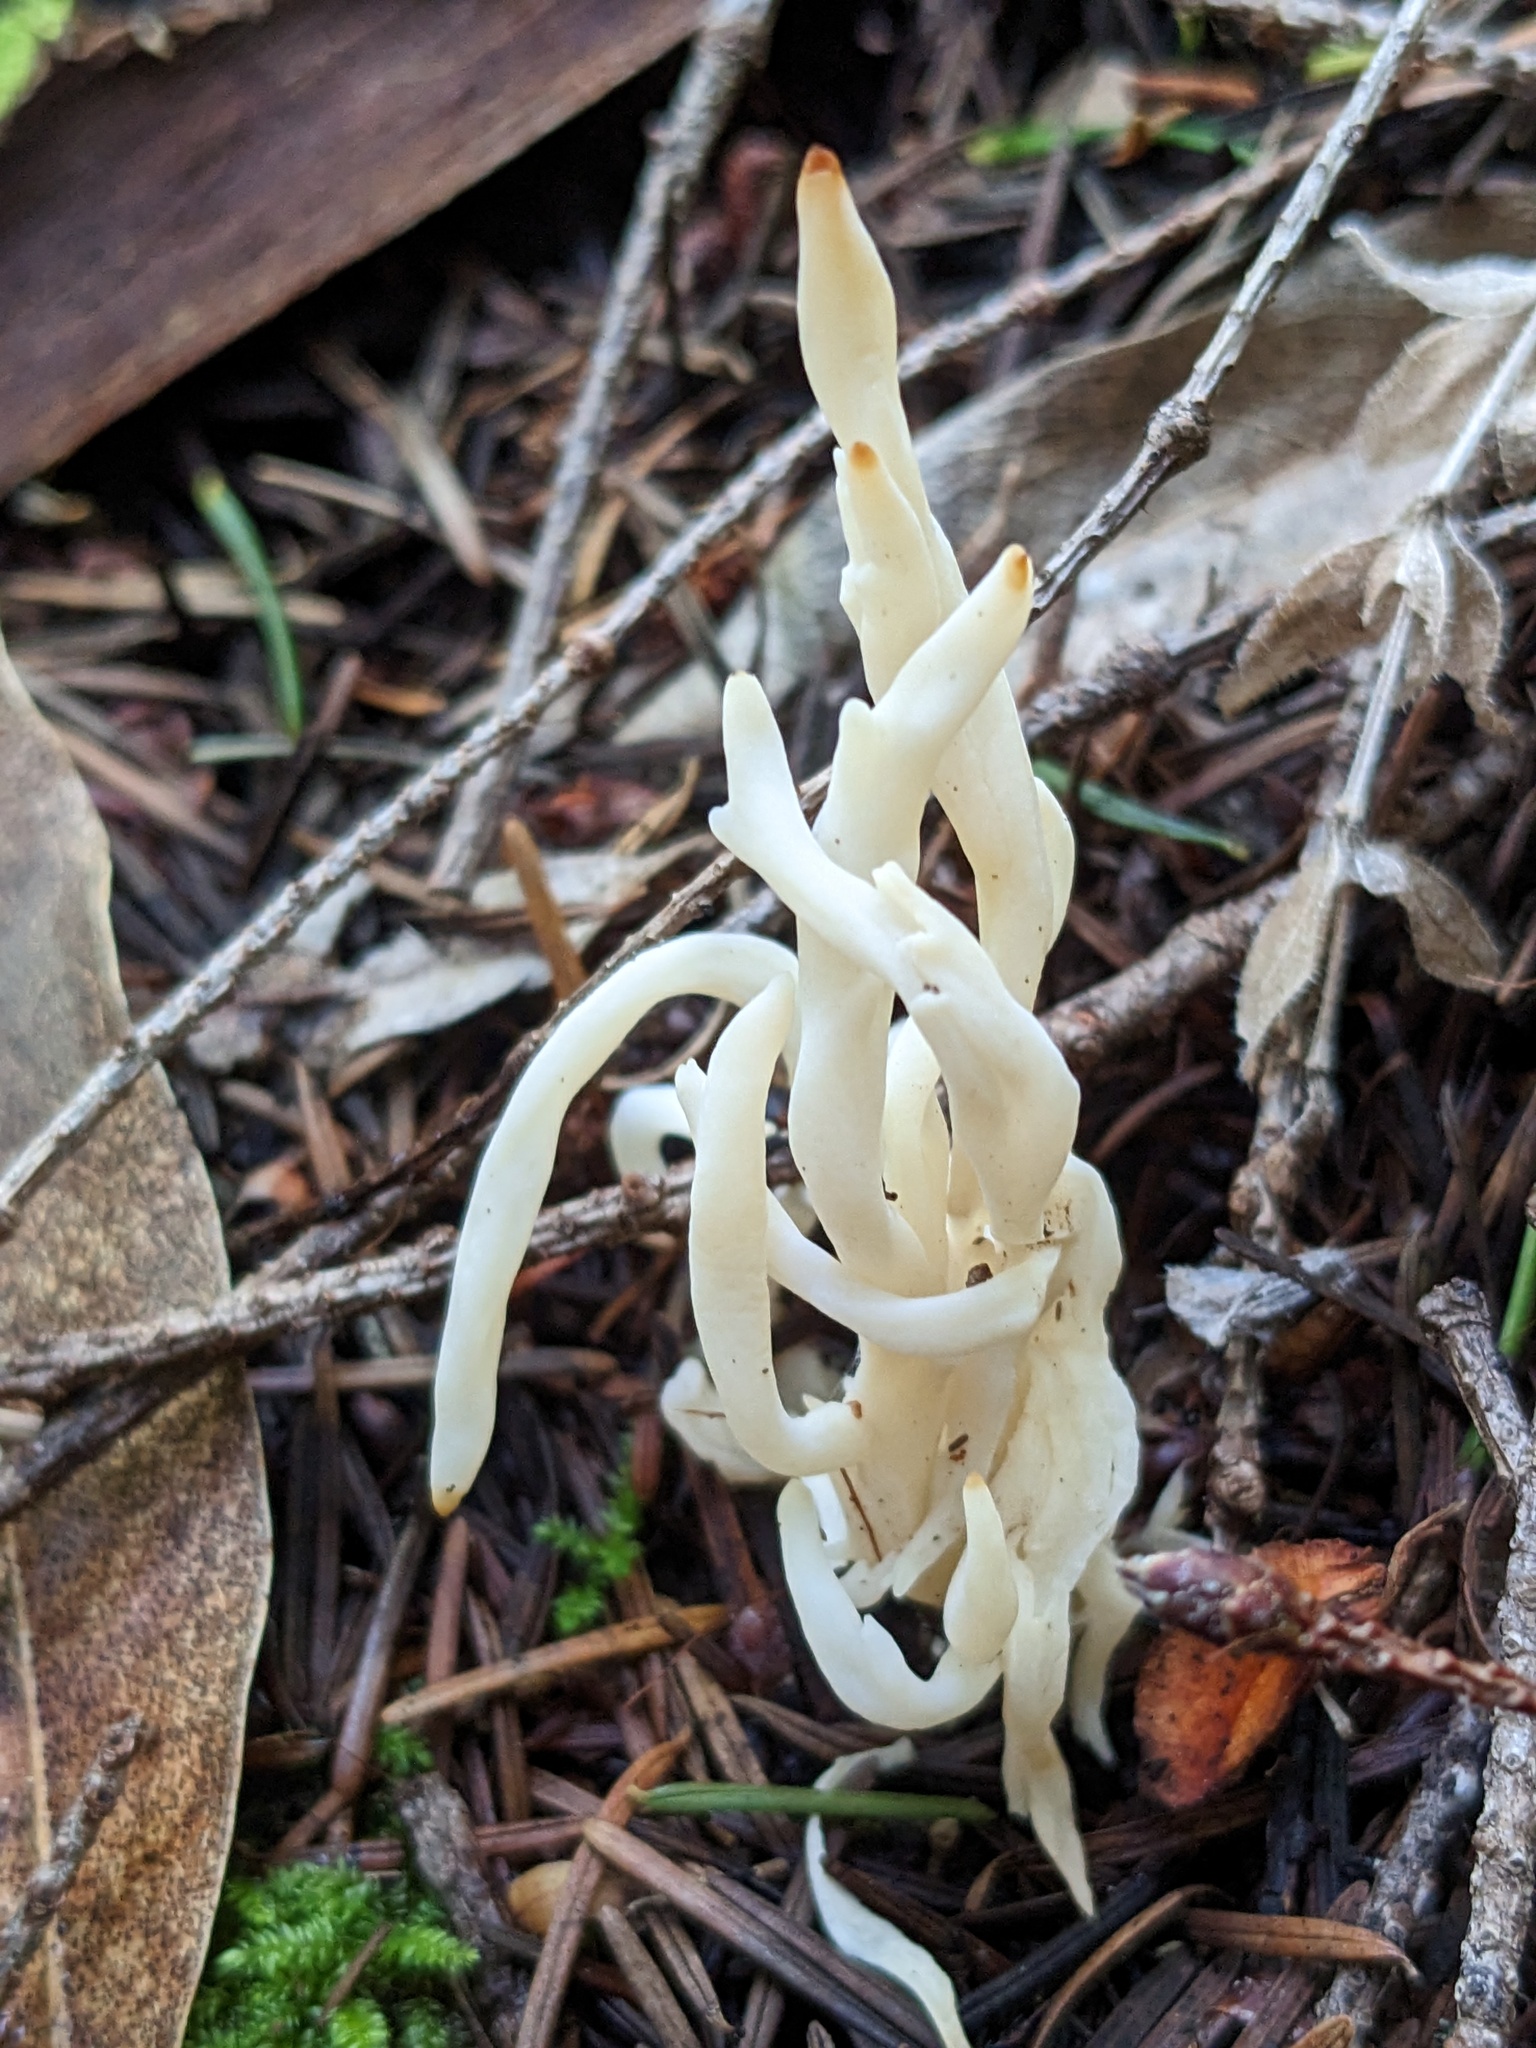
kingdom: Fungi
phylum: Basidiomycota
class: Agaricomycetes
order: Cantharellales
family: Hydnaceae
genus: Clavulina
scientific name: Clavulina rugosa
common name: Wrinkled club
